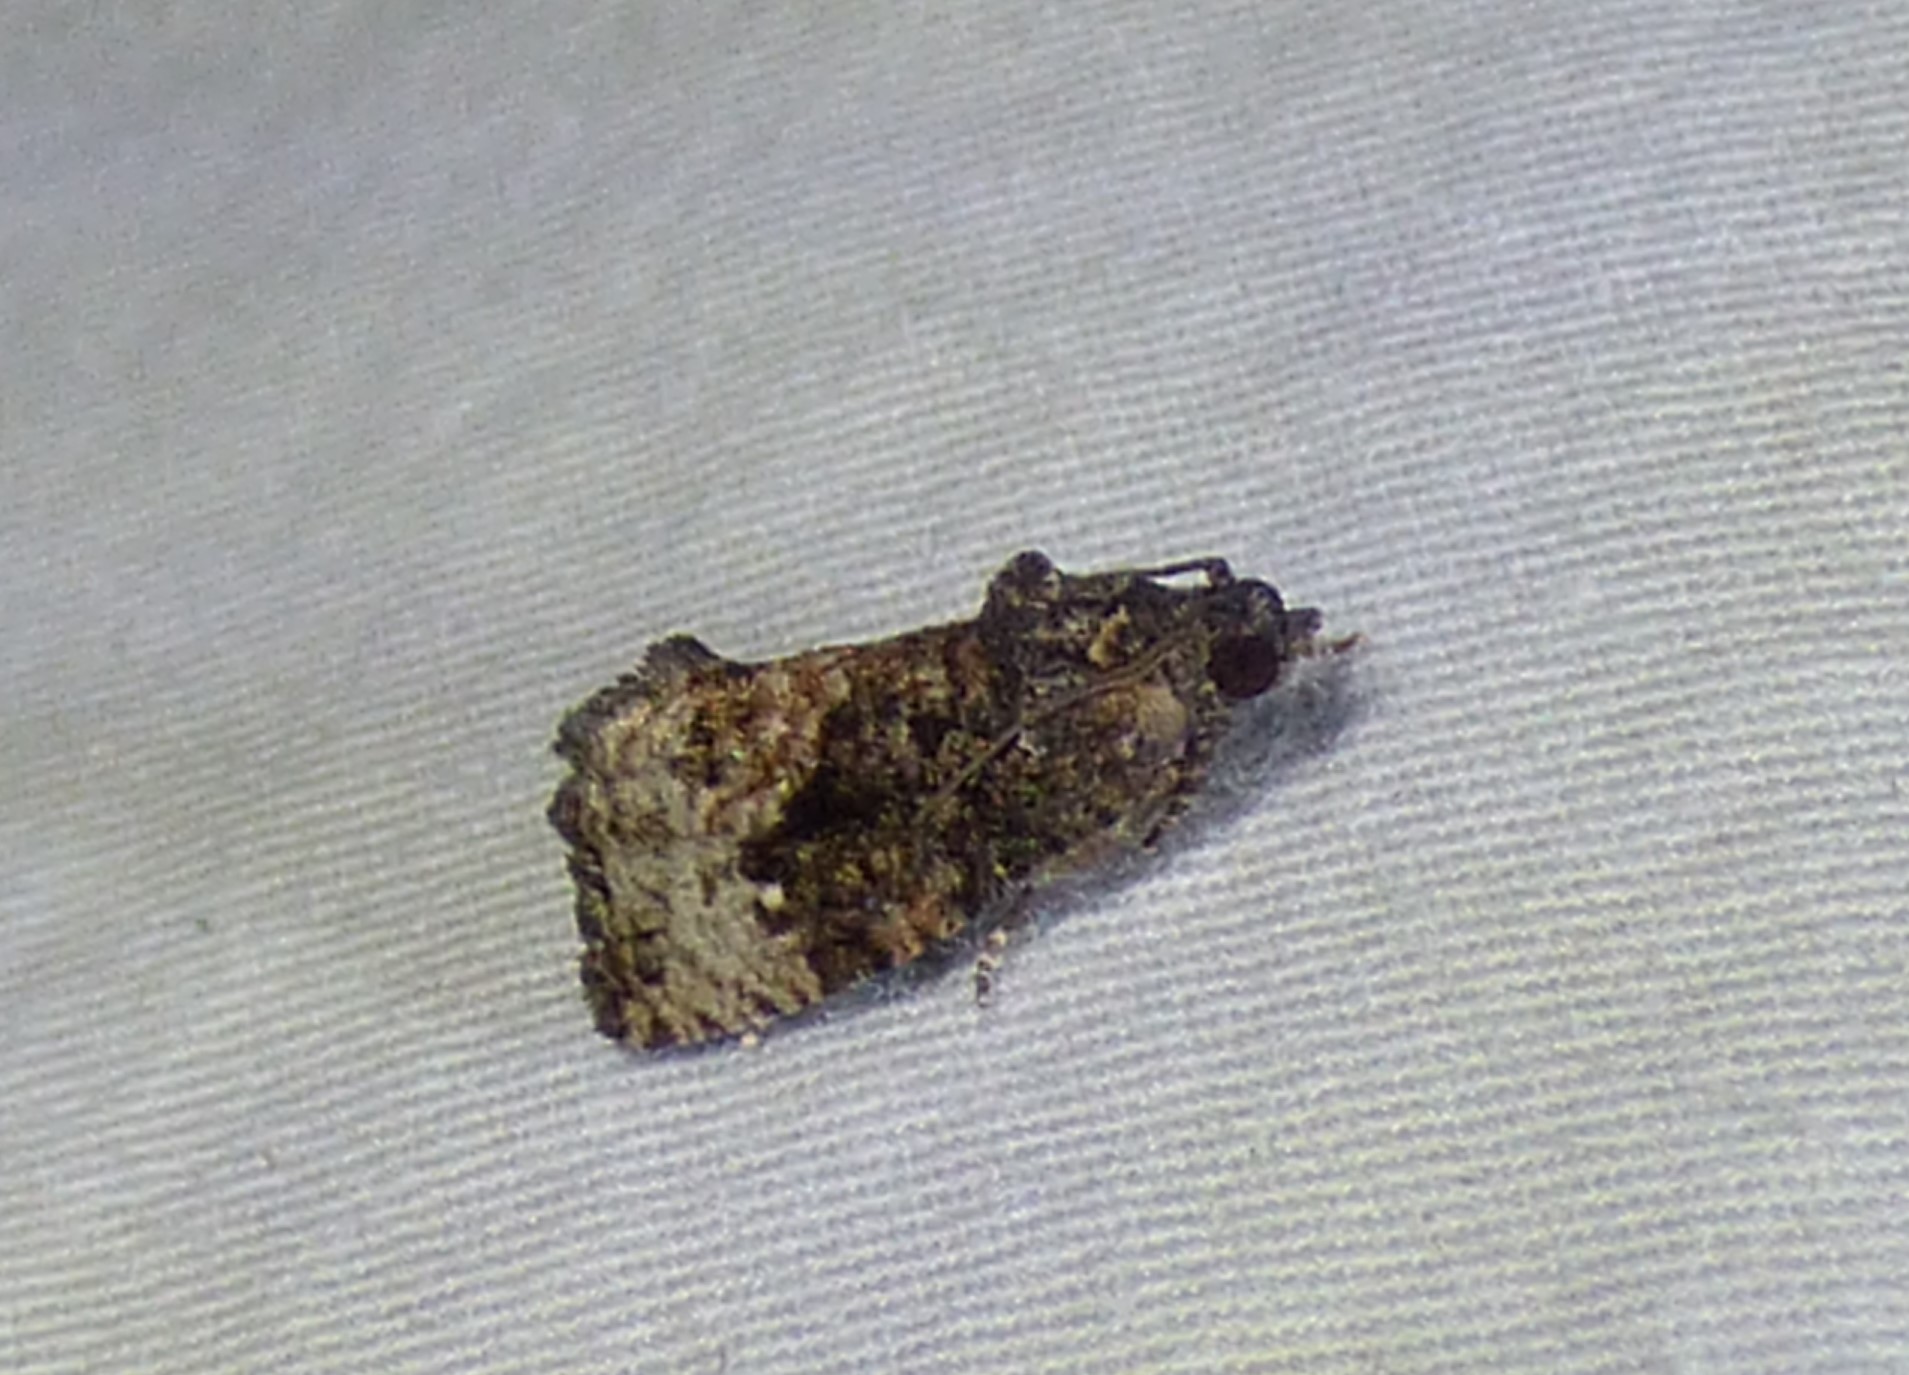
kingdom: Animalia
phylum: Arthropoda
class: Insecta
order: Lepidoptera
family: Tortricidae
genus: Gymnandrosoma
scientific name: Gymnandrosoma punctidiscanum
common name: Dotted ecdytolopha moth
